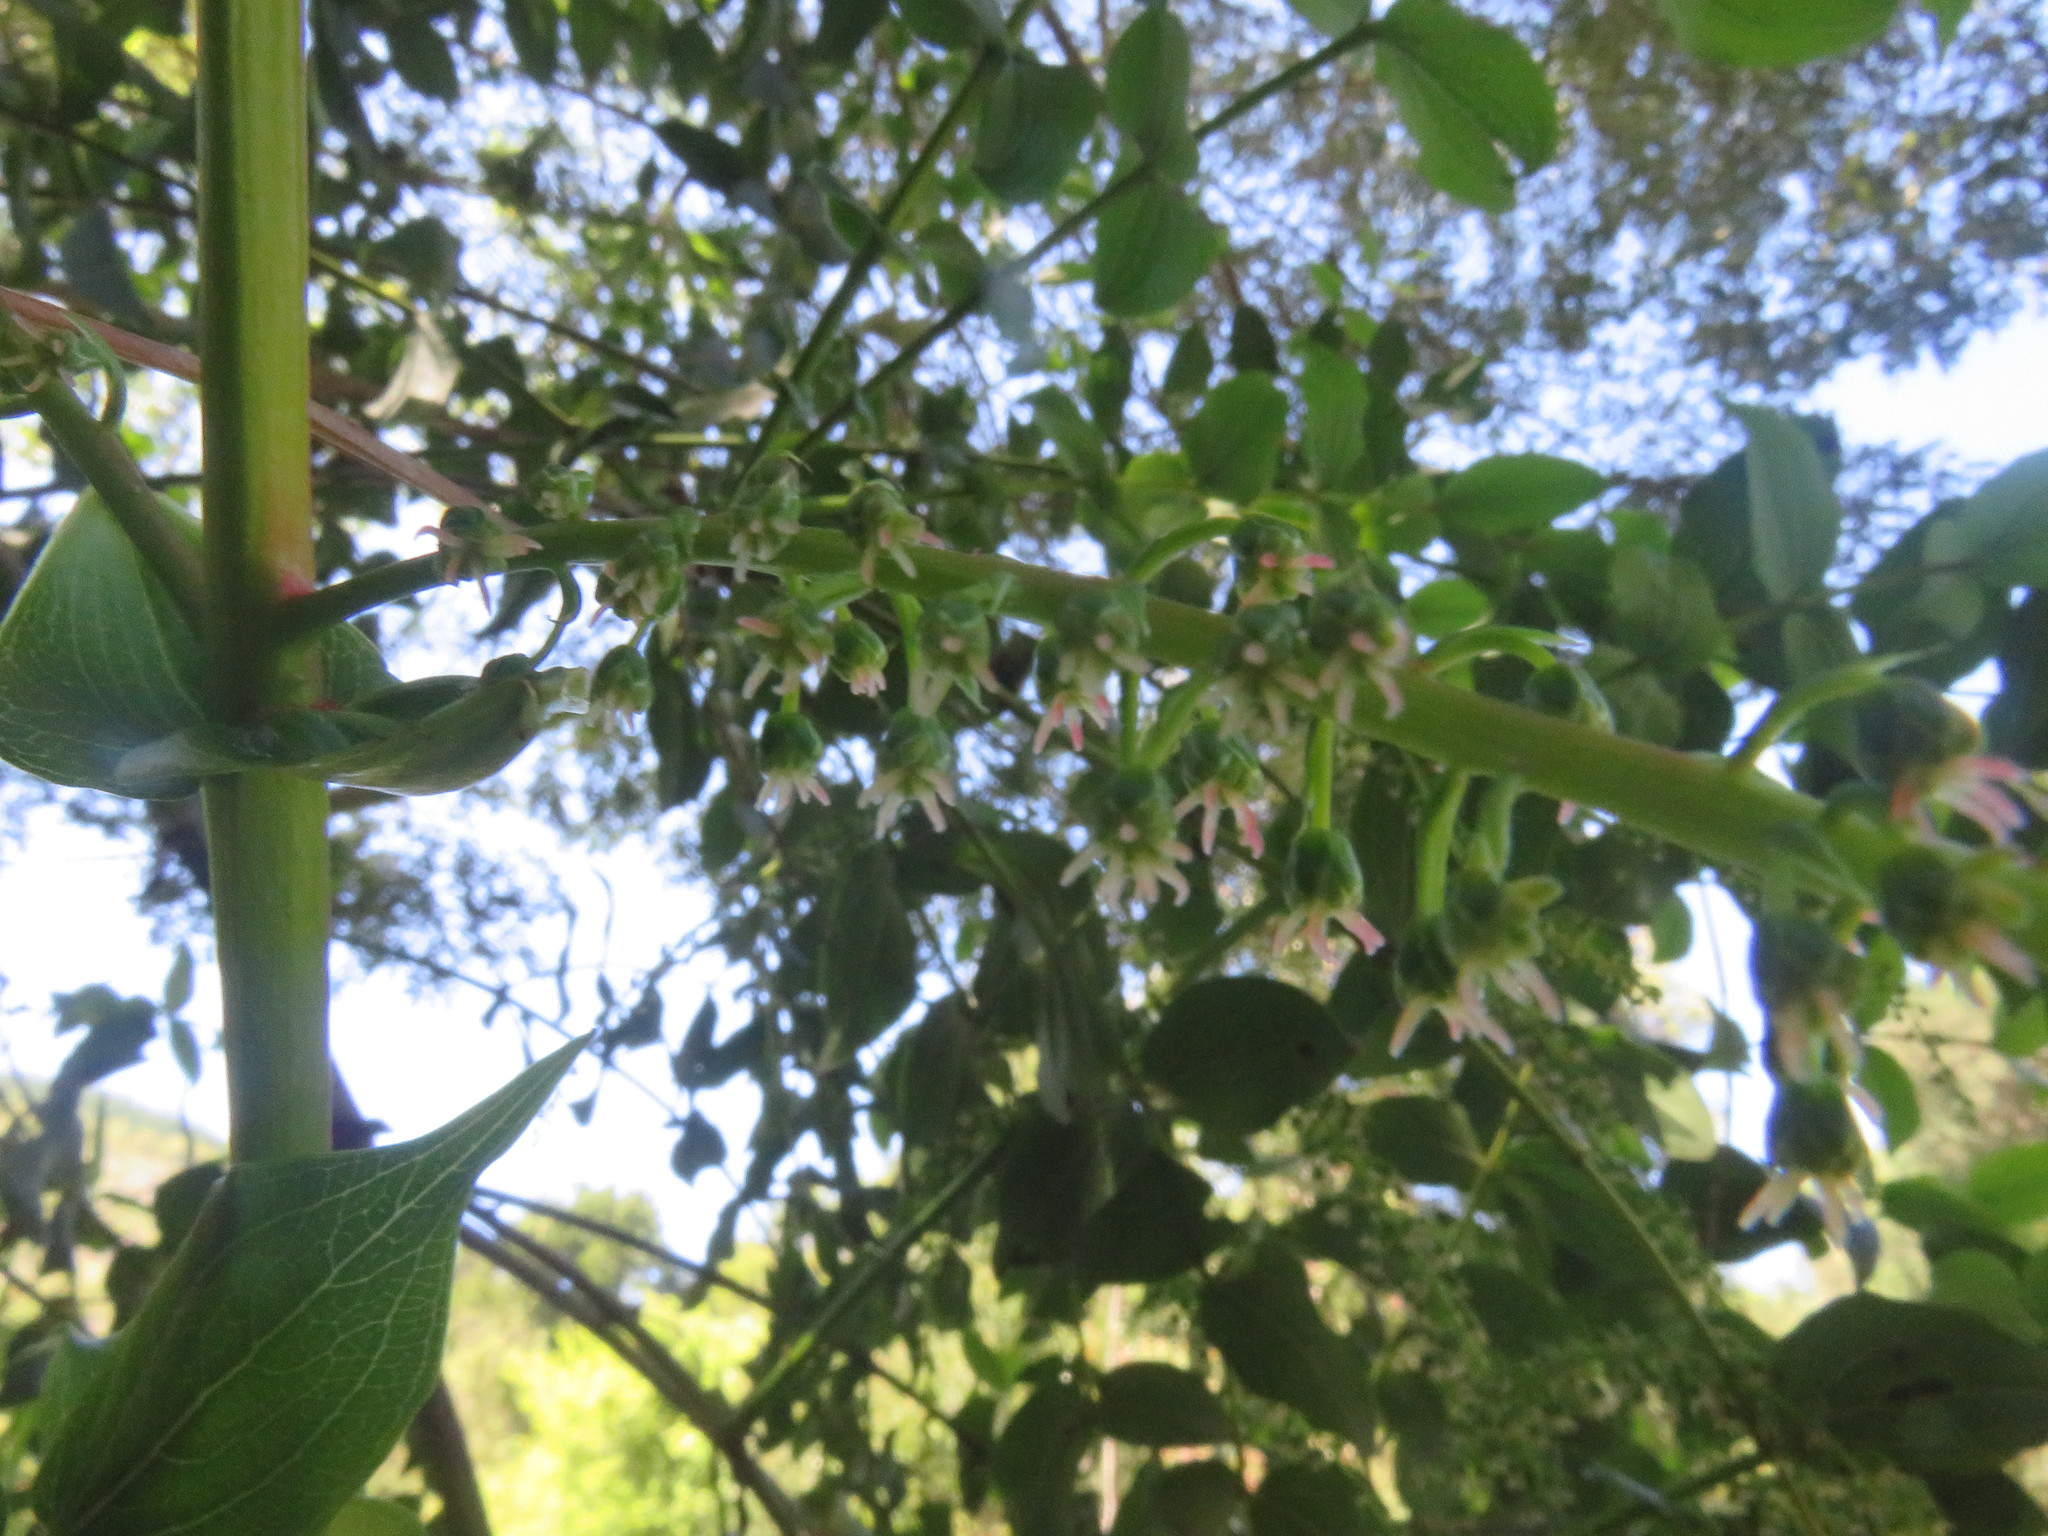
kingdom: Plantae
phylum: Tracheophyta
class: Magnoliopsida
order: Cucurbitales
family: Coriariaceae
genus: Coriaria
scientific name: Coriaria ruscifolia
